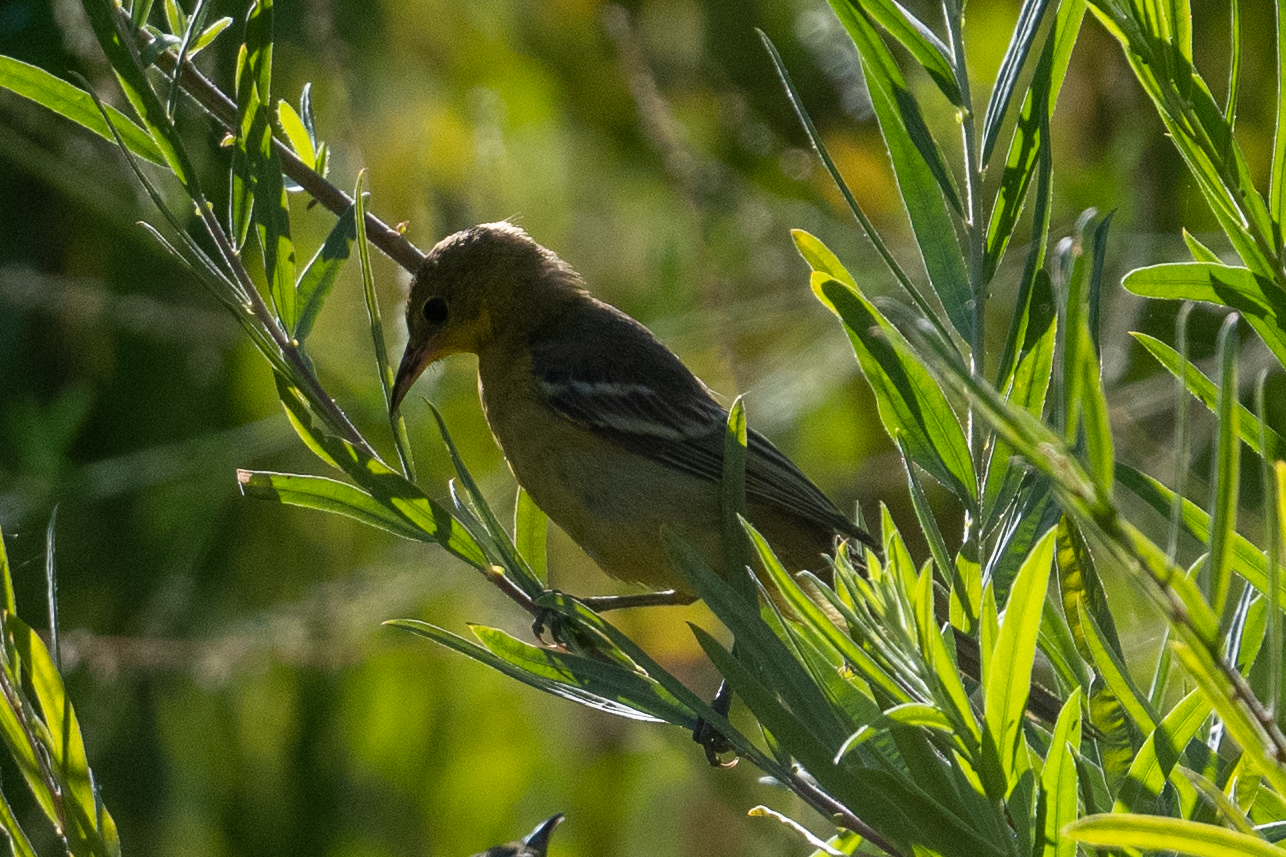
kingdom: Animalia
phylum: Chordata
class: Aves
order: Passeriformes
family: Icteridae
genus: Icterus
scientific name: Icterus cucullatus
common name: Hooded oriole
